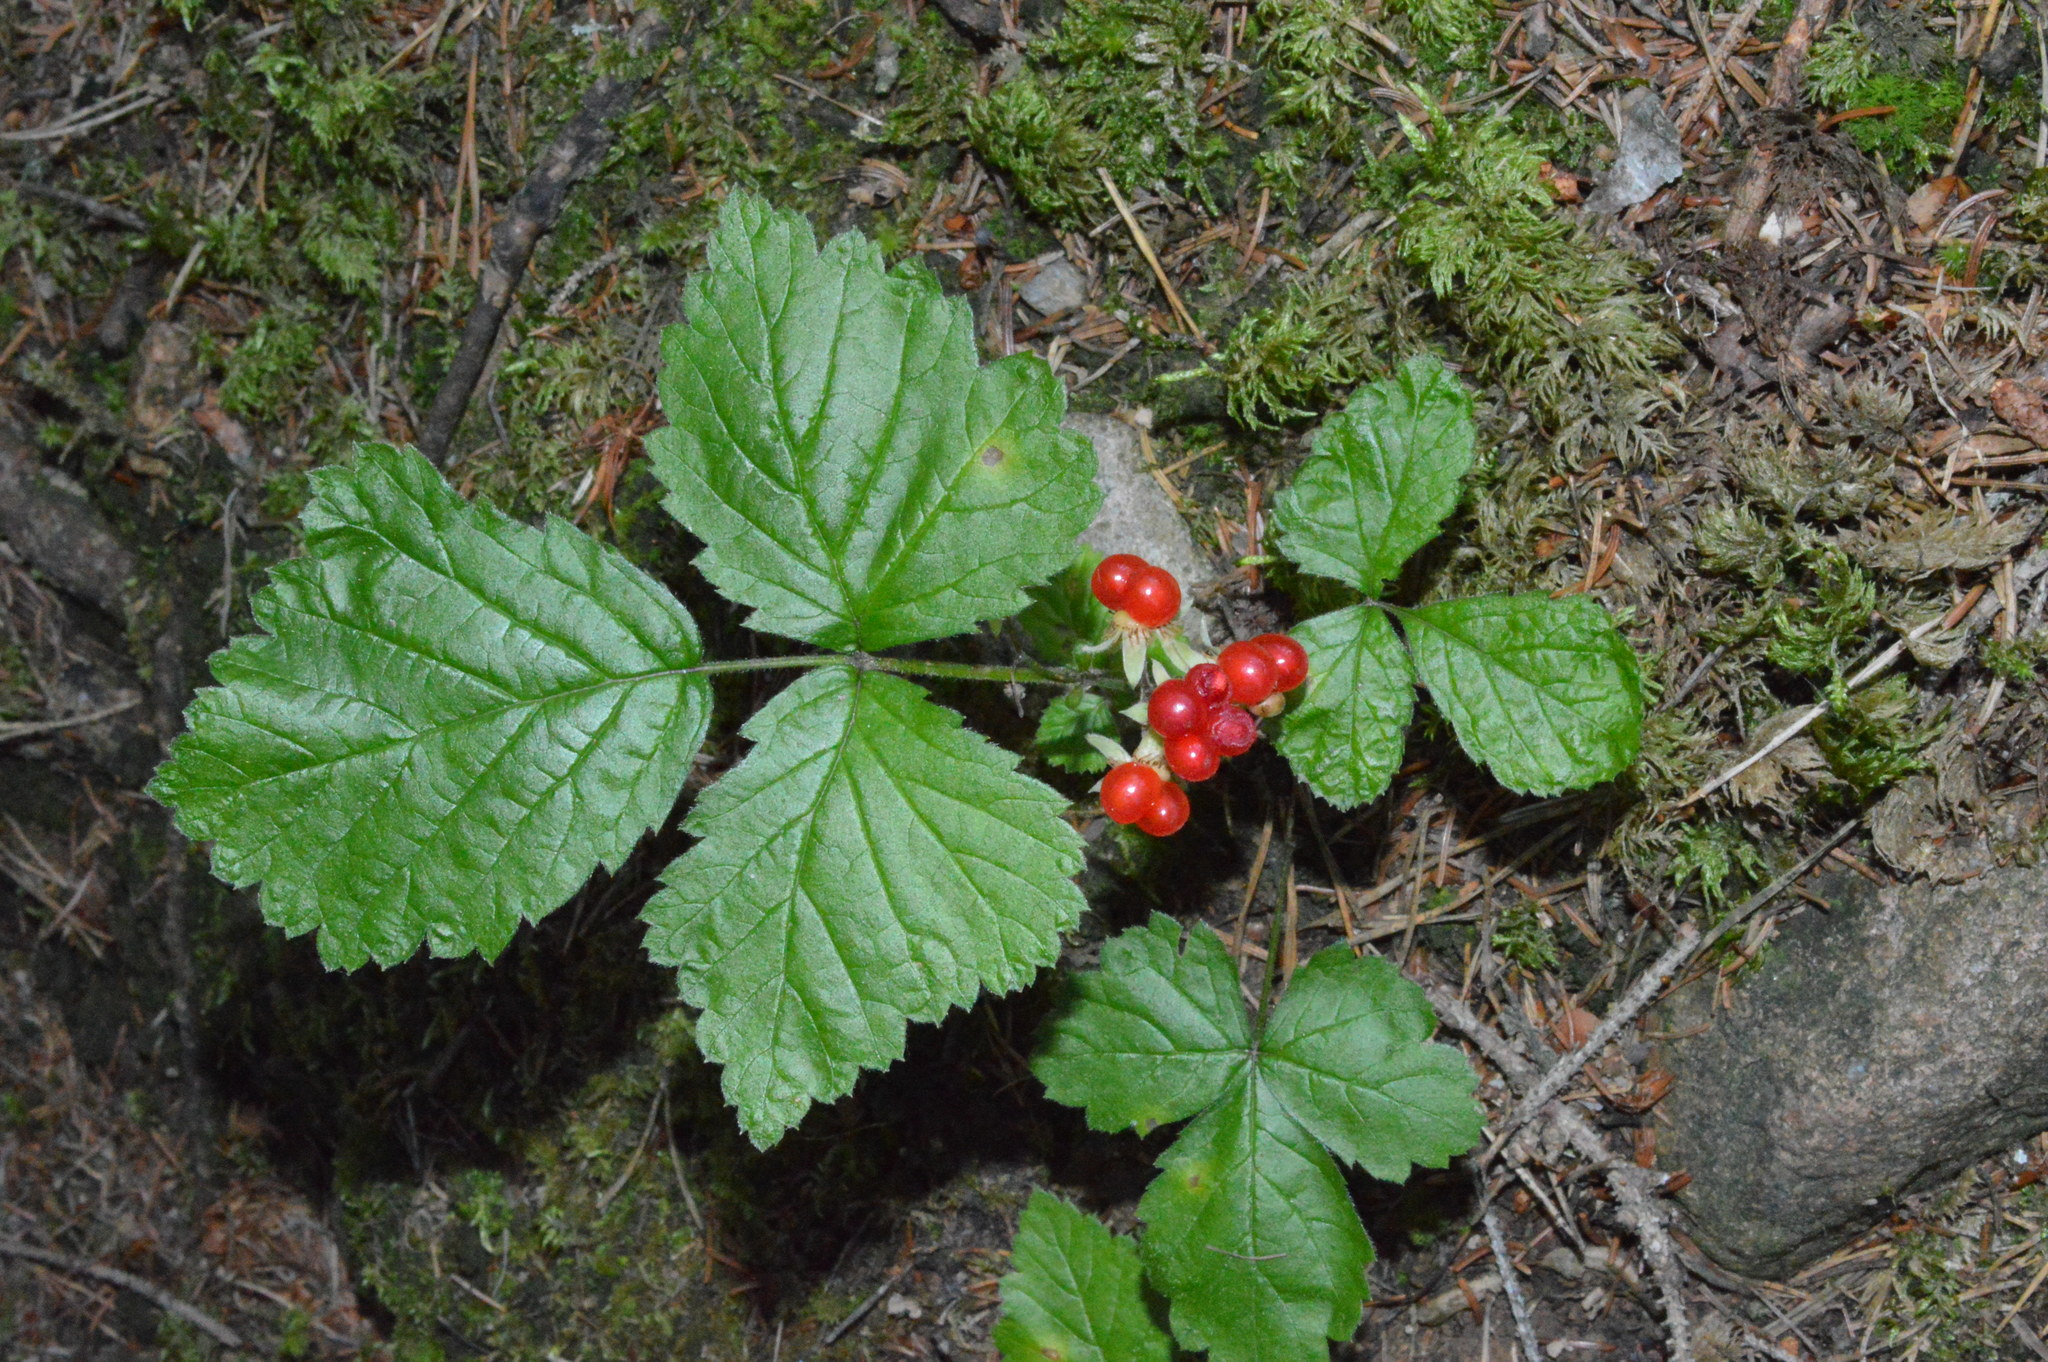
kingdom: Plantae
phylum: Tracheophyta
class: Magnoliopsida
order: Rosales
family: Rosaceae
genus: Rubus
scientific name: Rubus saxatilis
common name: Stone bramble
